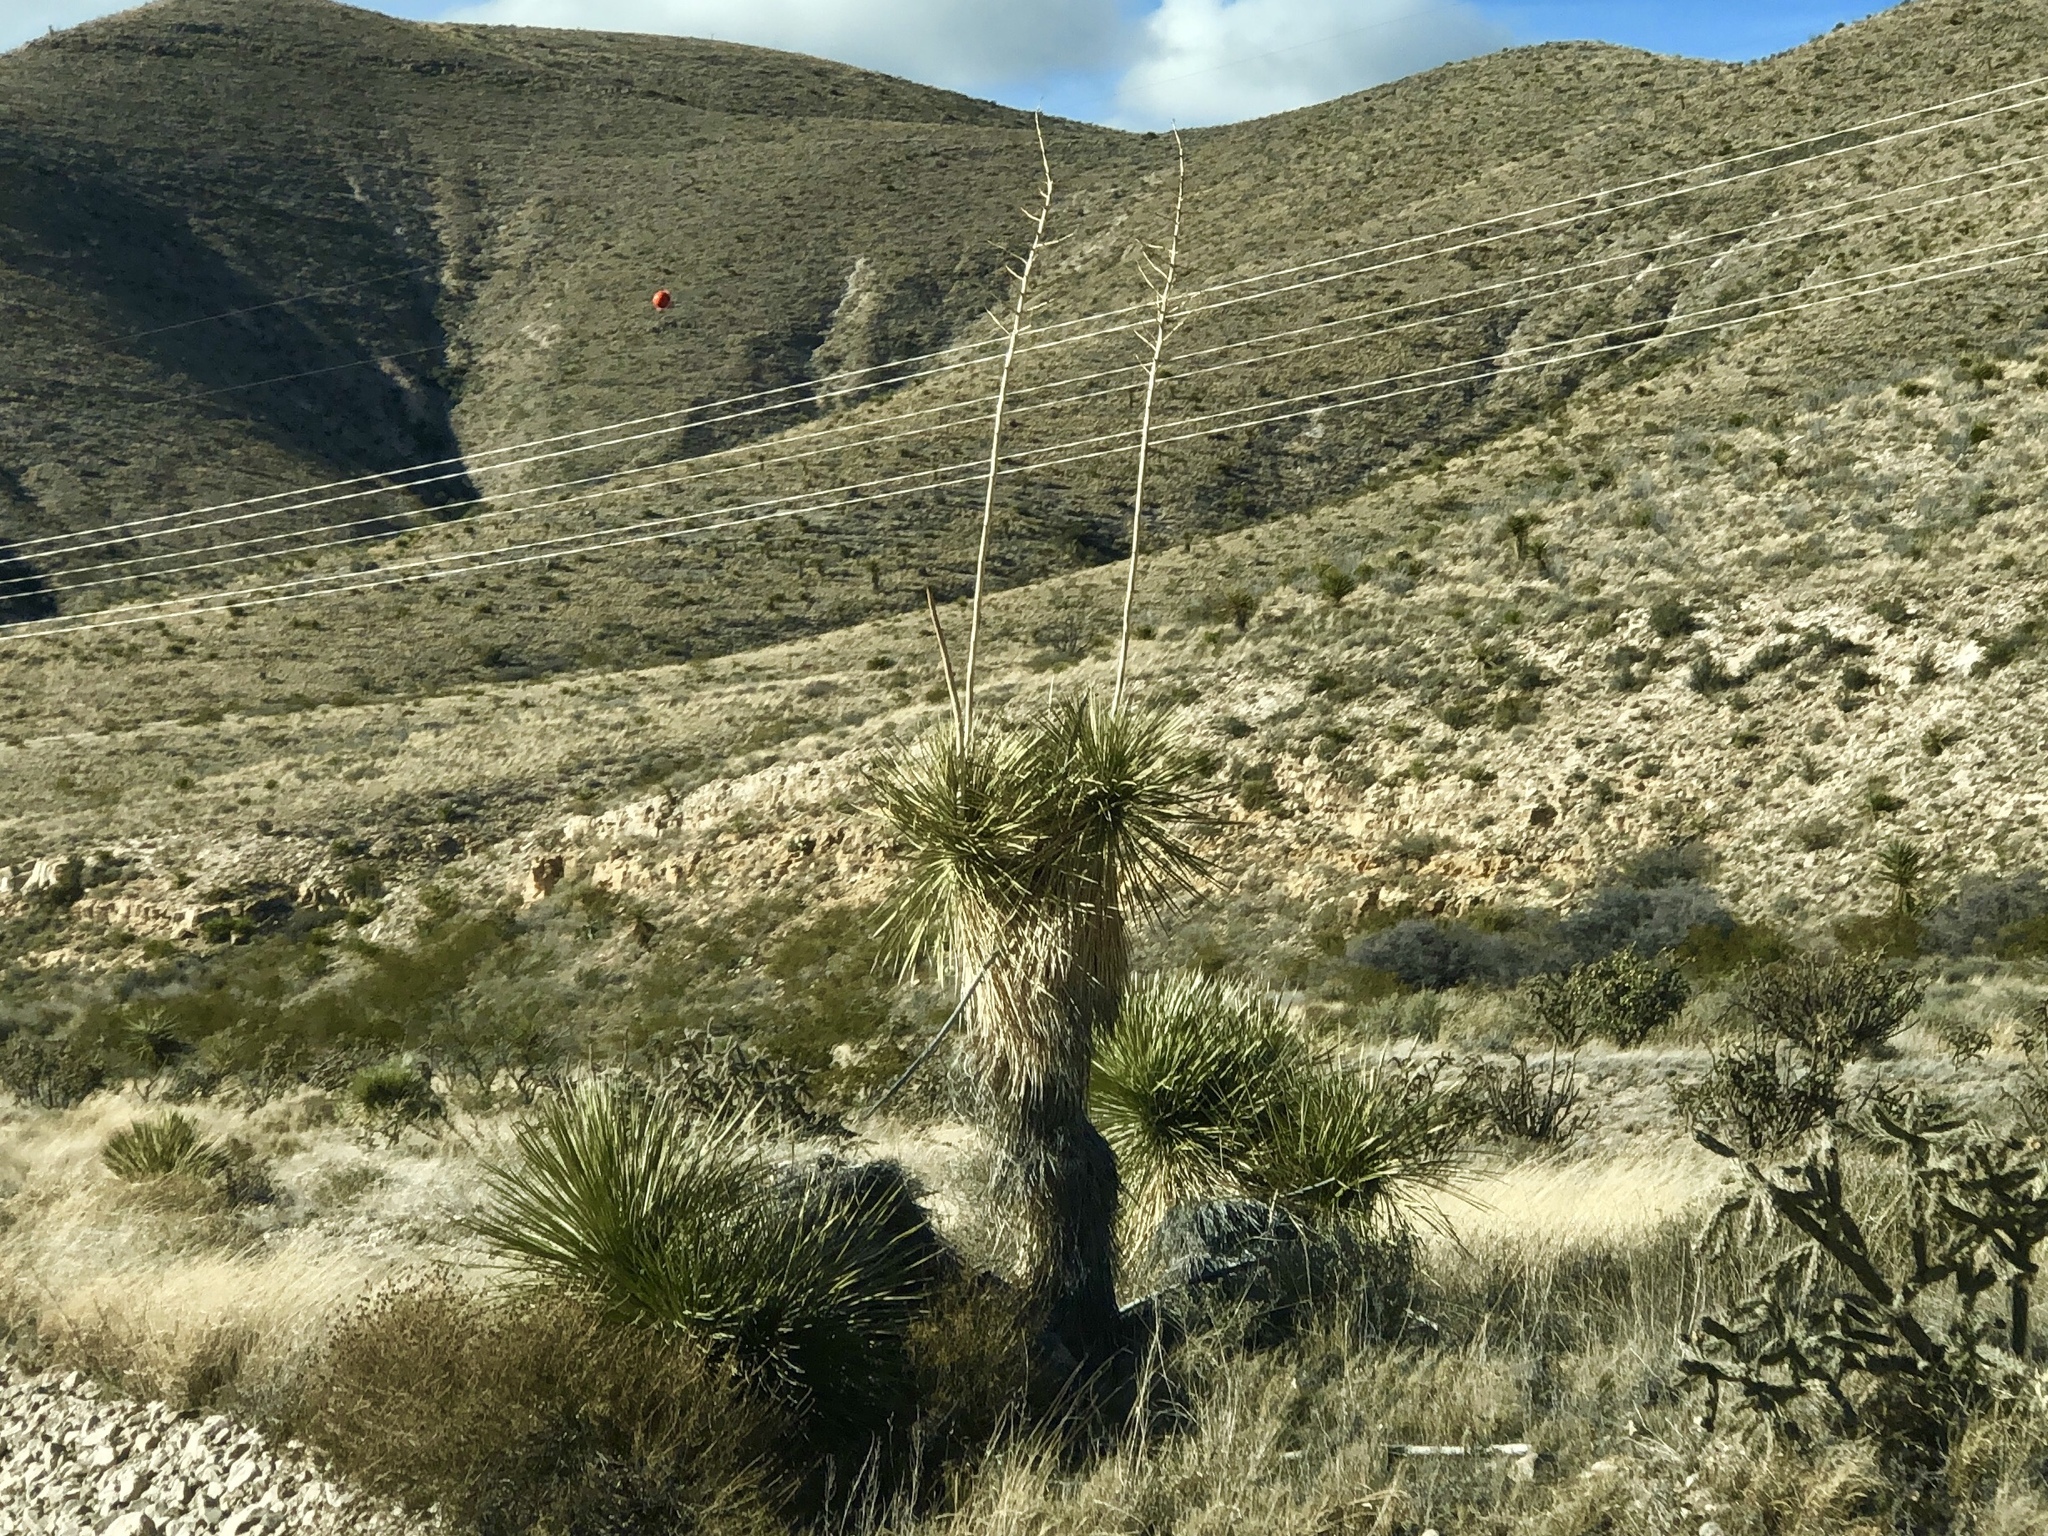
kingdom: Plantae
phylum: Tracheophyta
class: Liliopsida
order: Asparagales
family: Asparagaceae
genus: Yucca
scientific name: Yucca elata
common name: Palmella
